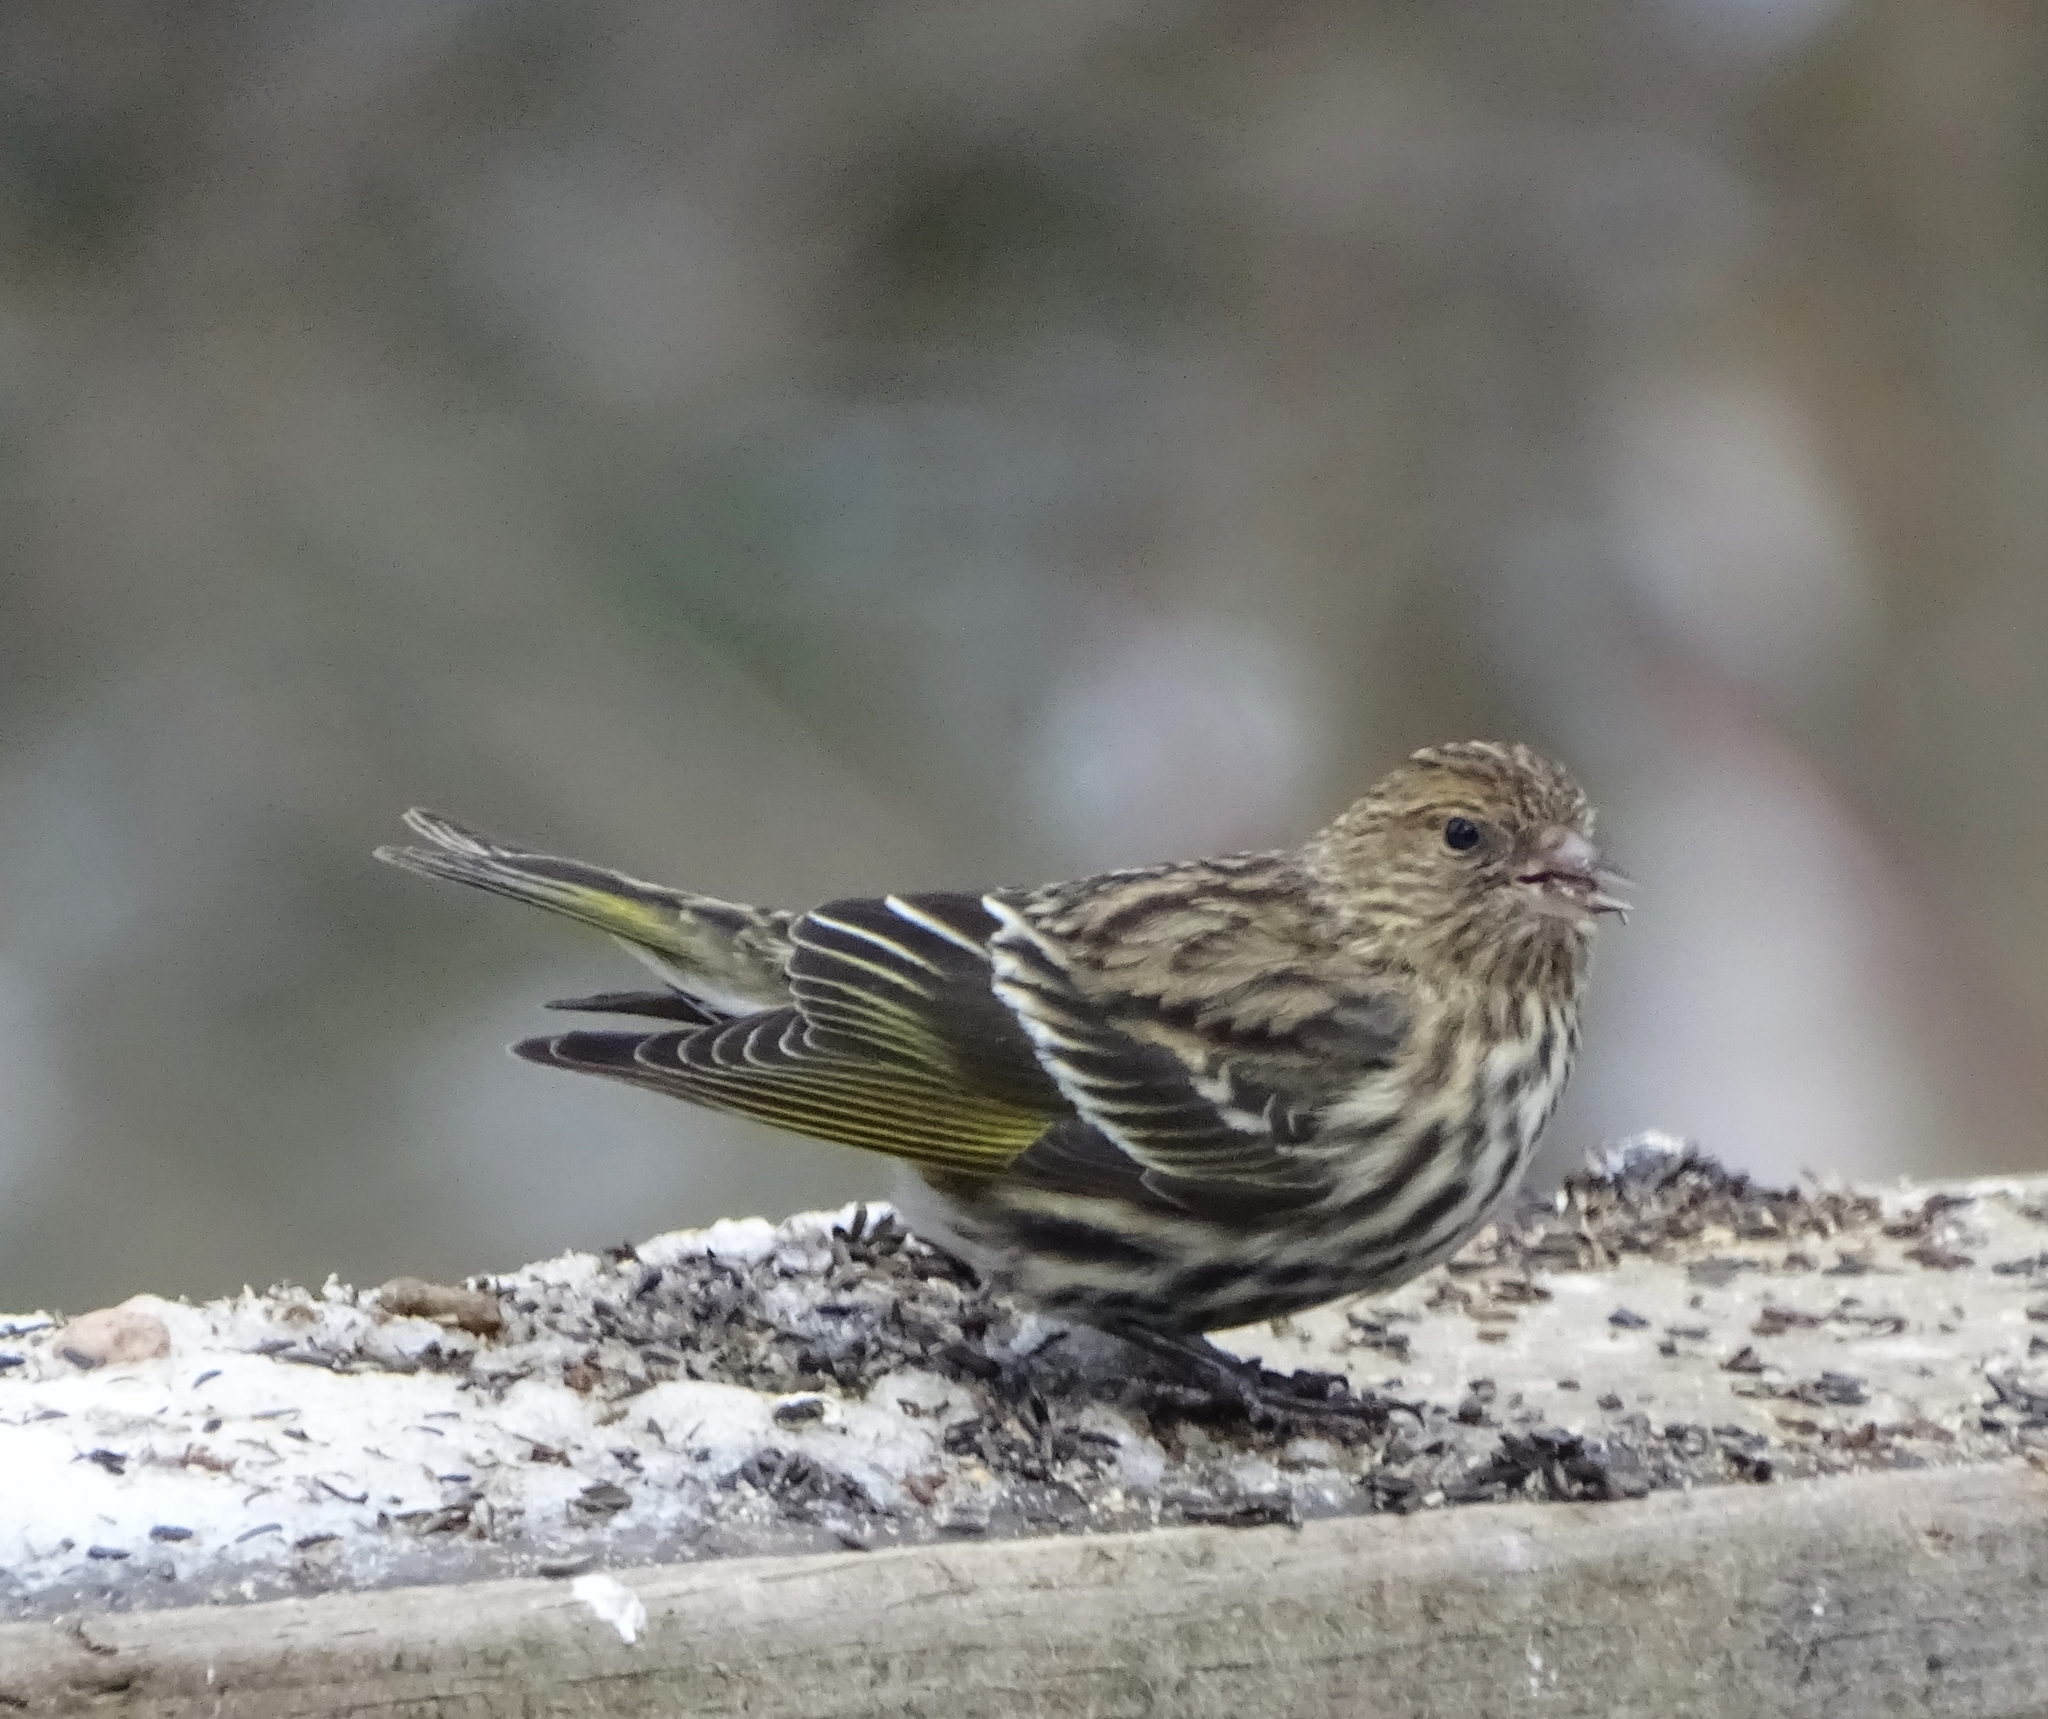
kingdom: Animalia
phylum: Chordata
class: Aves
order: Passeriformes
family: Fringillidae
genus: Spinus
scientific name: Spinus pinus
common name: Pine siskin
